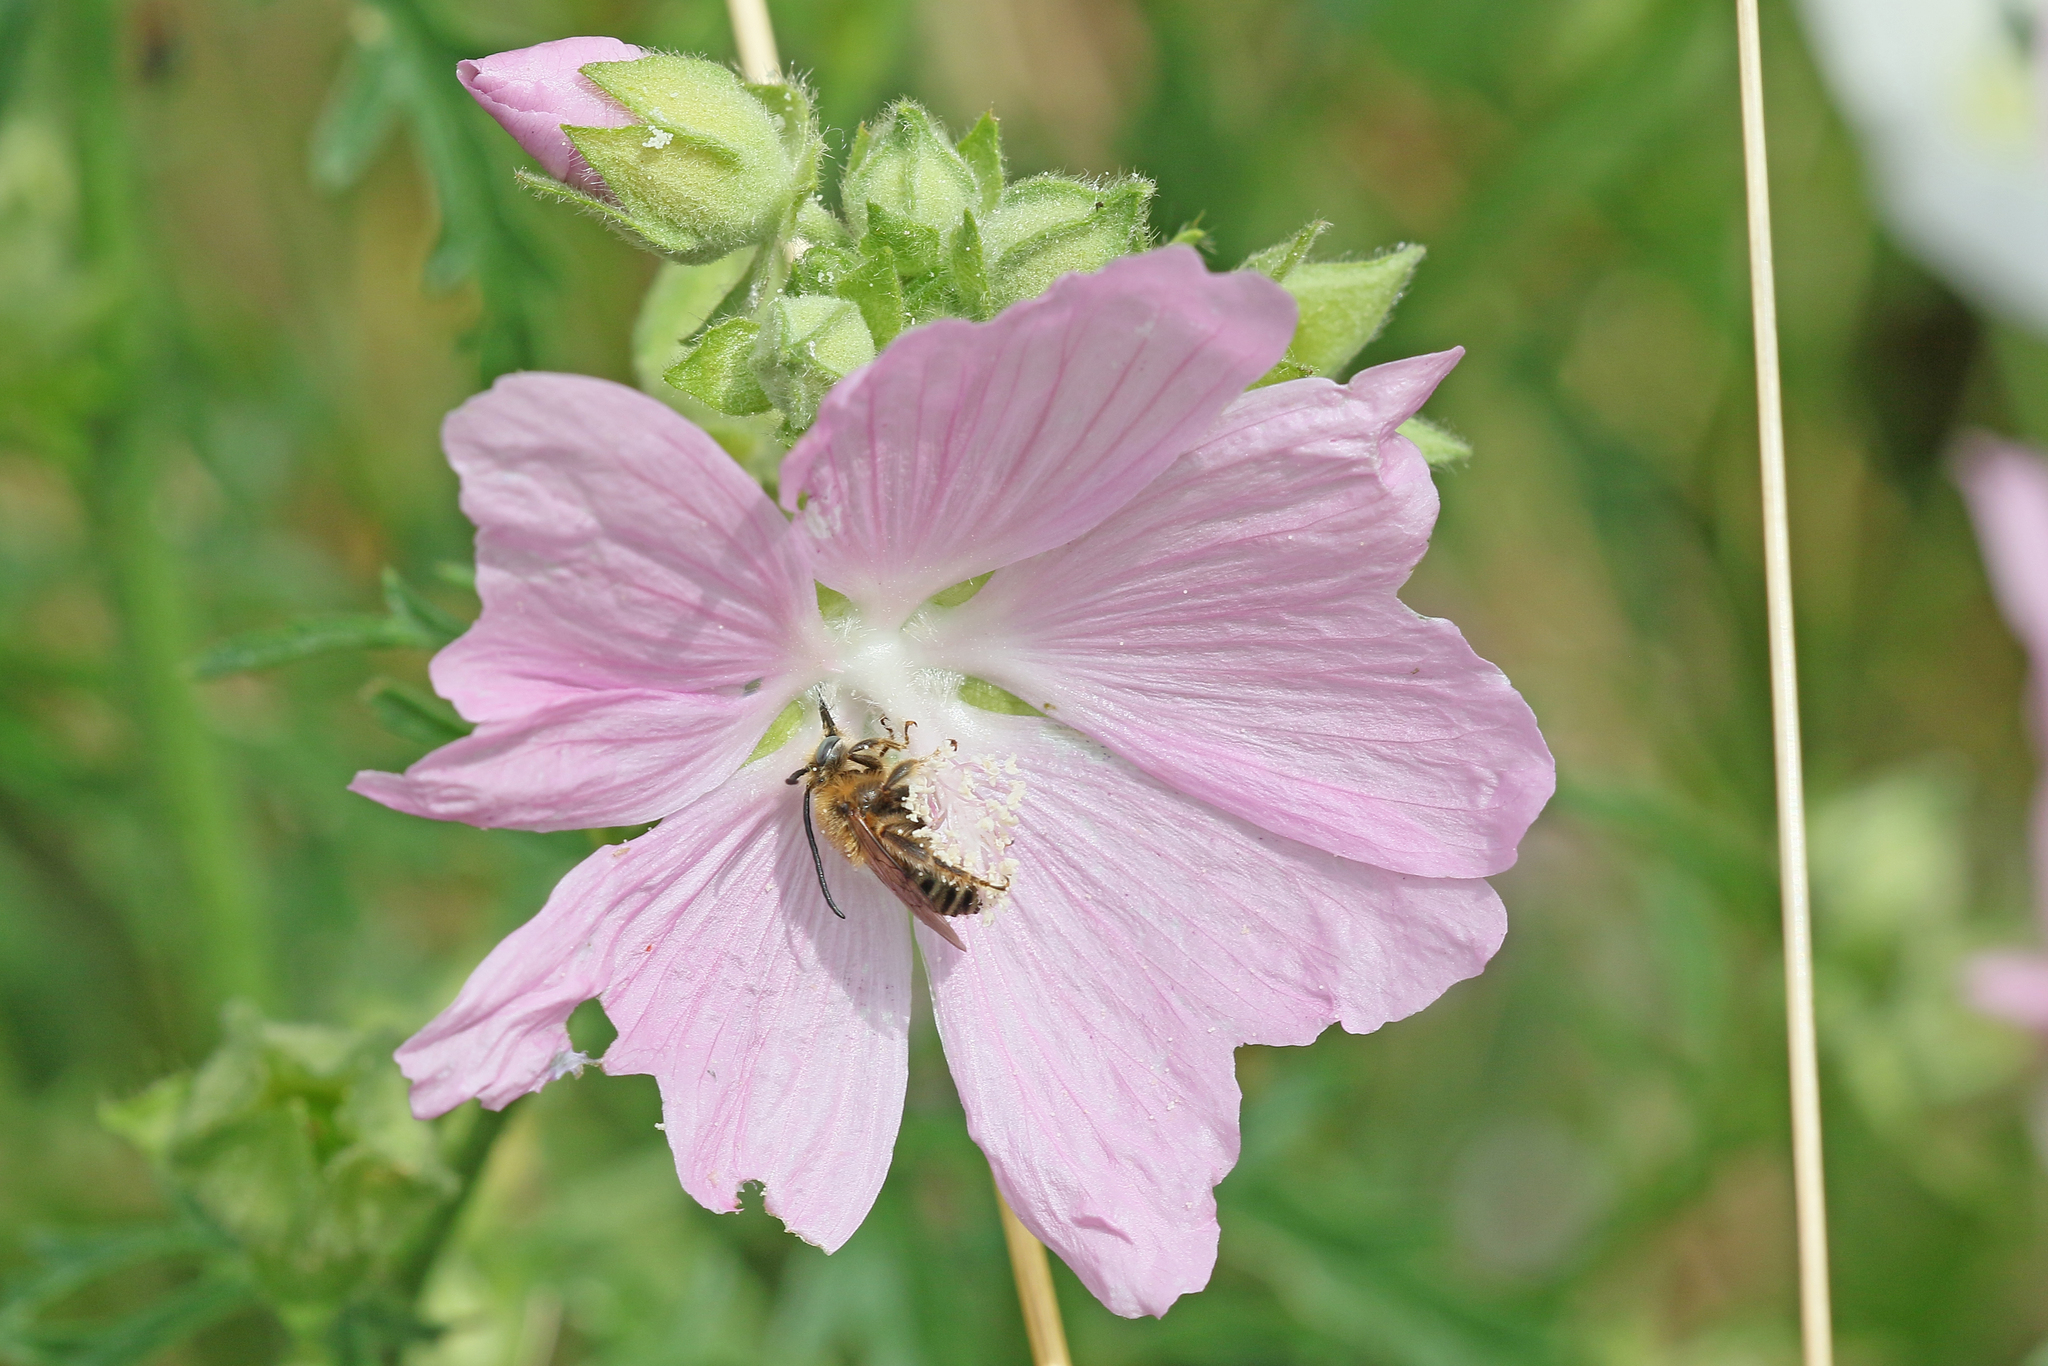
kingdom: Animalia
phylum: Arthropoda
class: Insecta
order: Hymenoptera
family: Apidae
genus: Tetralonia
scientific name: Tetralonia malvae
